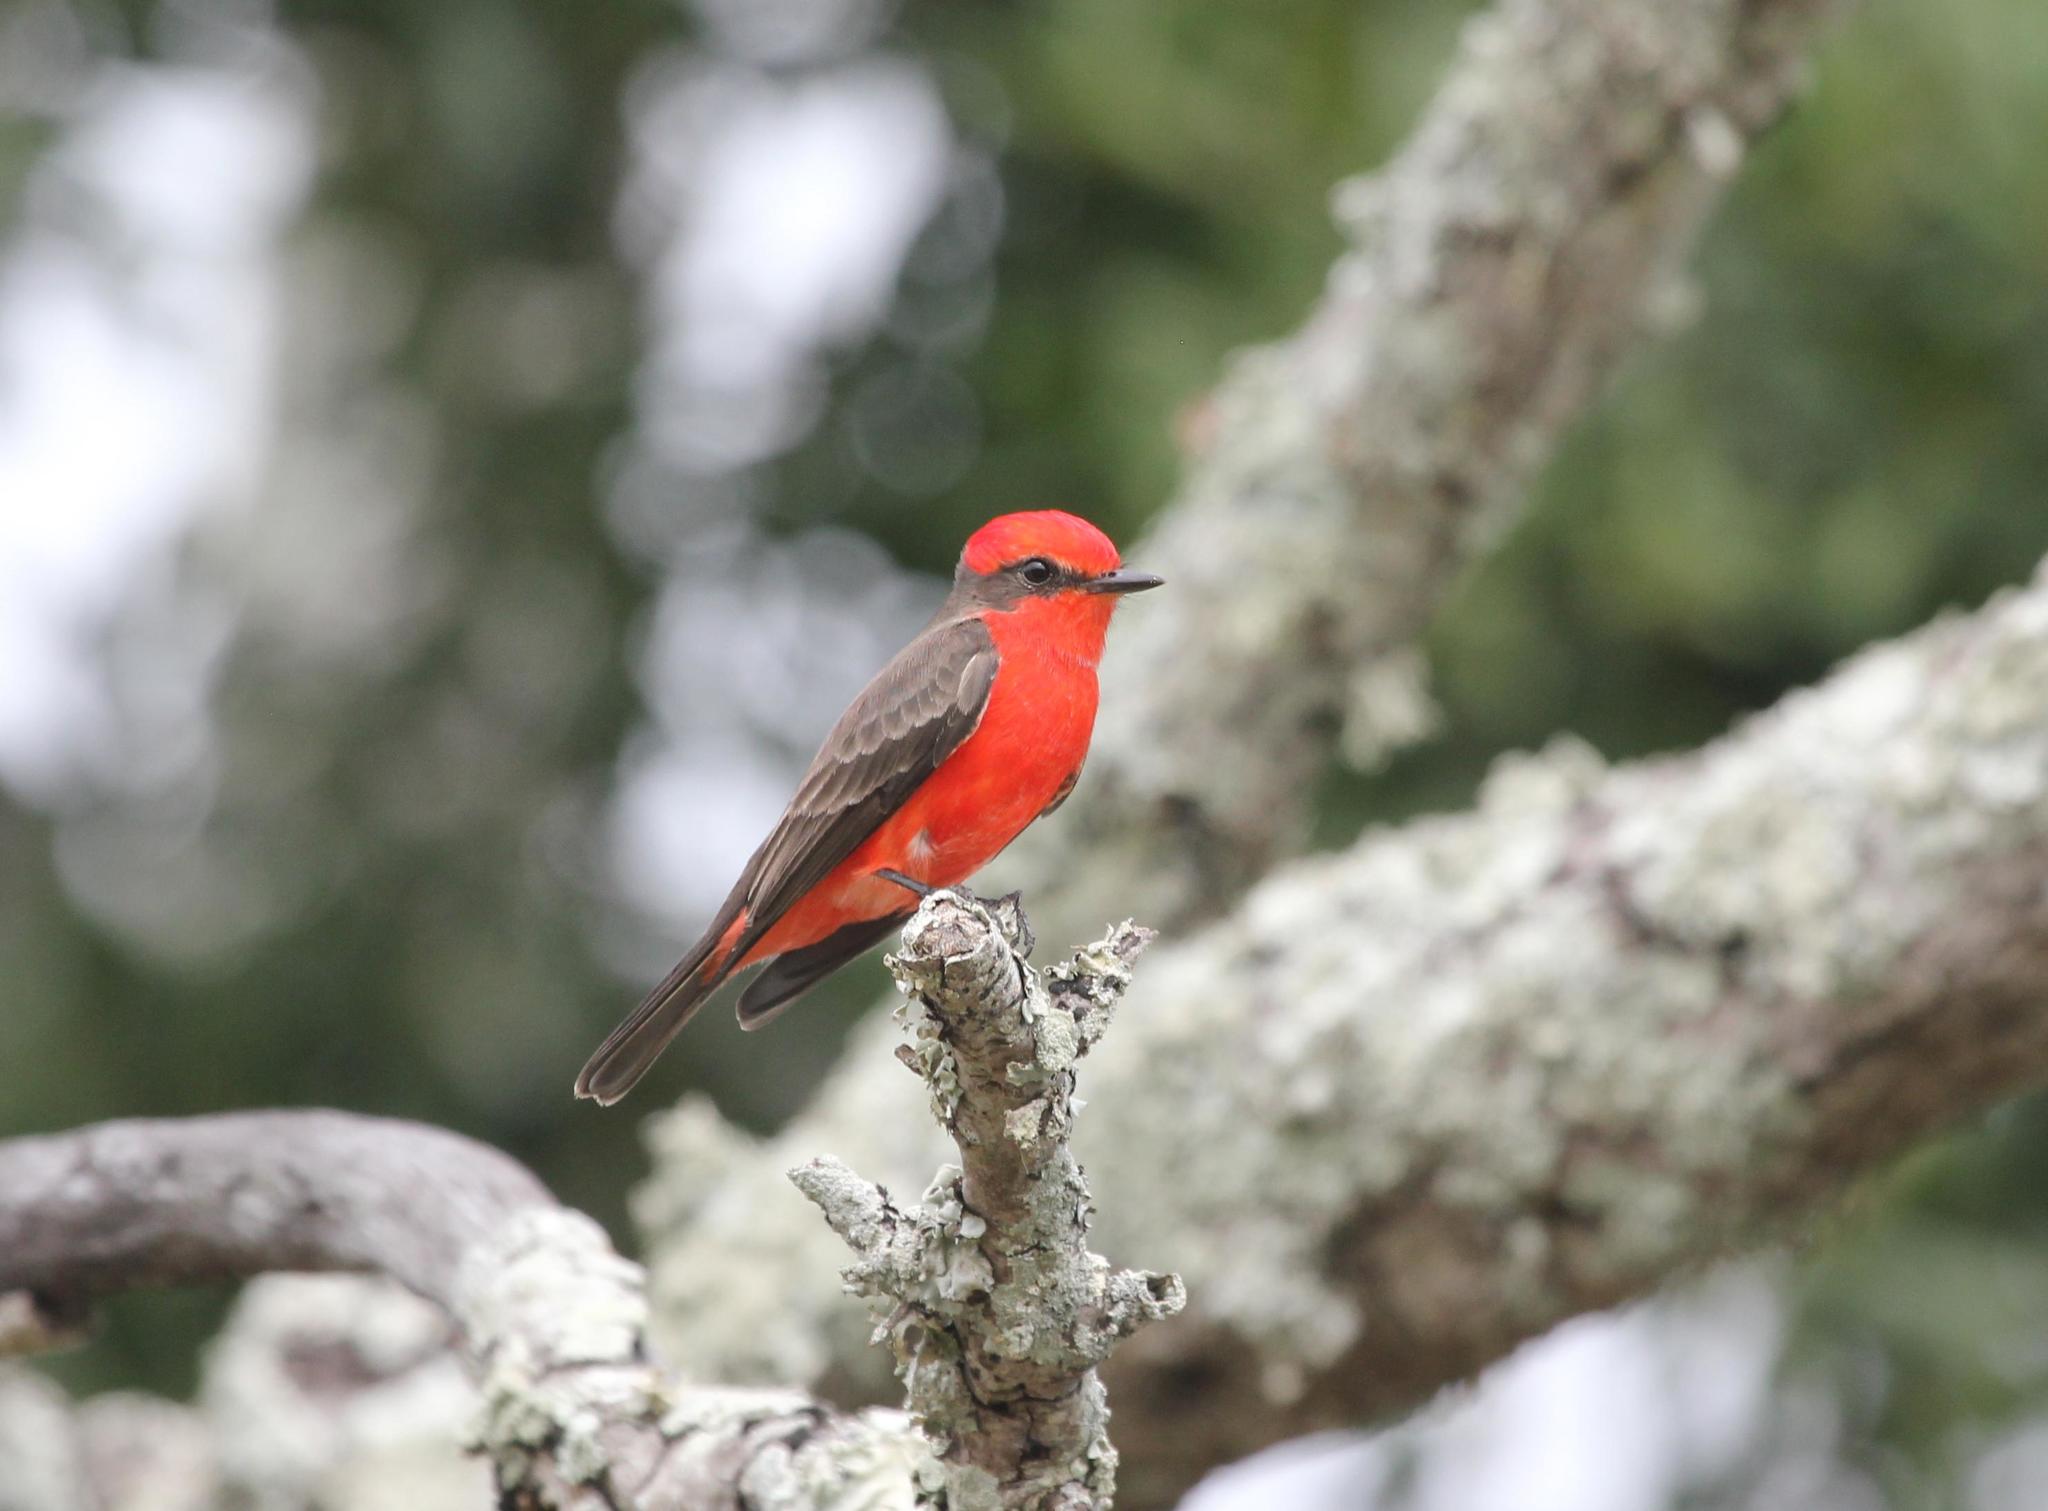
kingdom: Animalia
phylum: Chordata
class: Aves
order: Passeriformes
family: Tyrannidae
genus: Pyrocephalus
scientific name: Pyrocephalus rubinus
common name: Vermilion flycatcher
